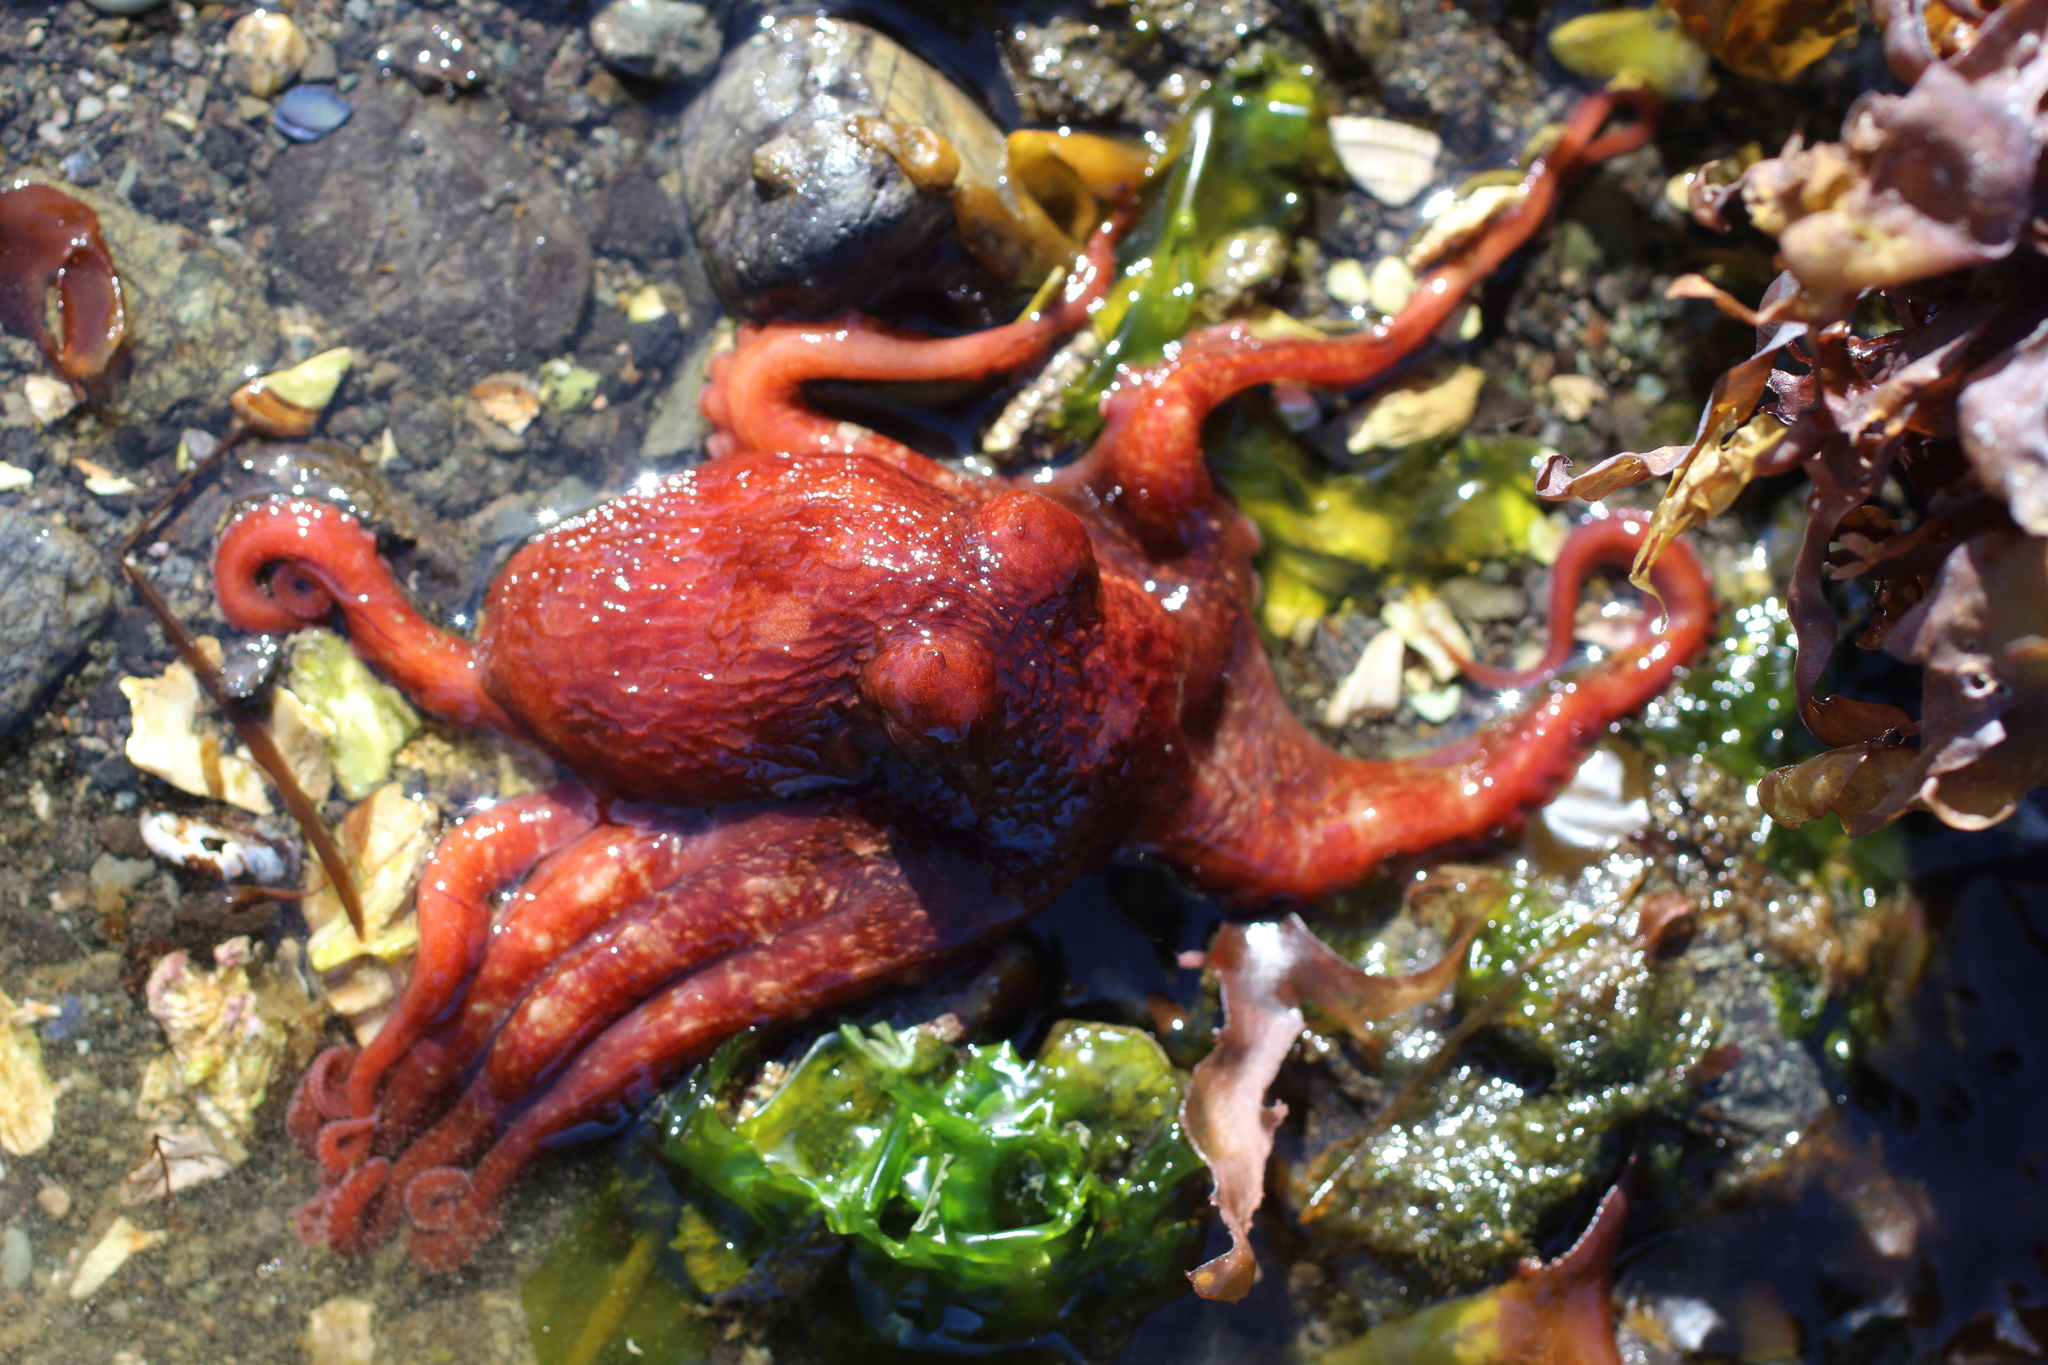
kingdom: Animalia
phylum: Mollusca
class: Cephalopoda
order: Octopoda
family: Enteroctopodidae
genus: Enteroctopus
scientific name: Enteroctopus dofleini
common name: Giant north pacific octopus
